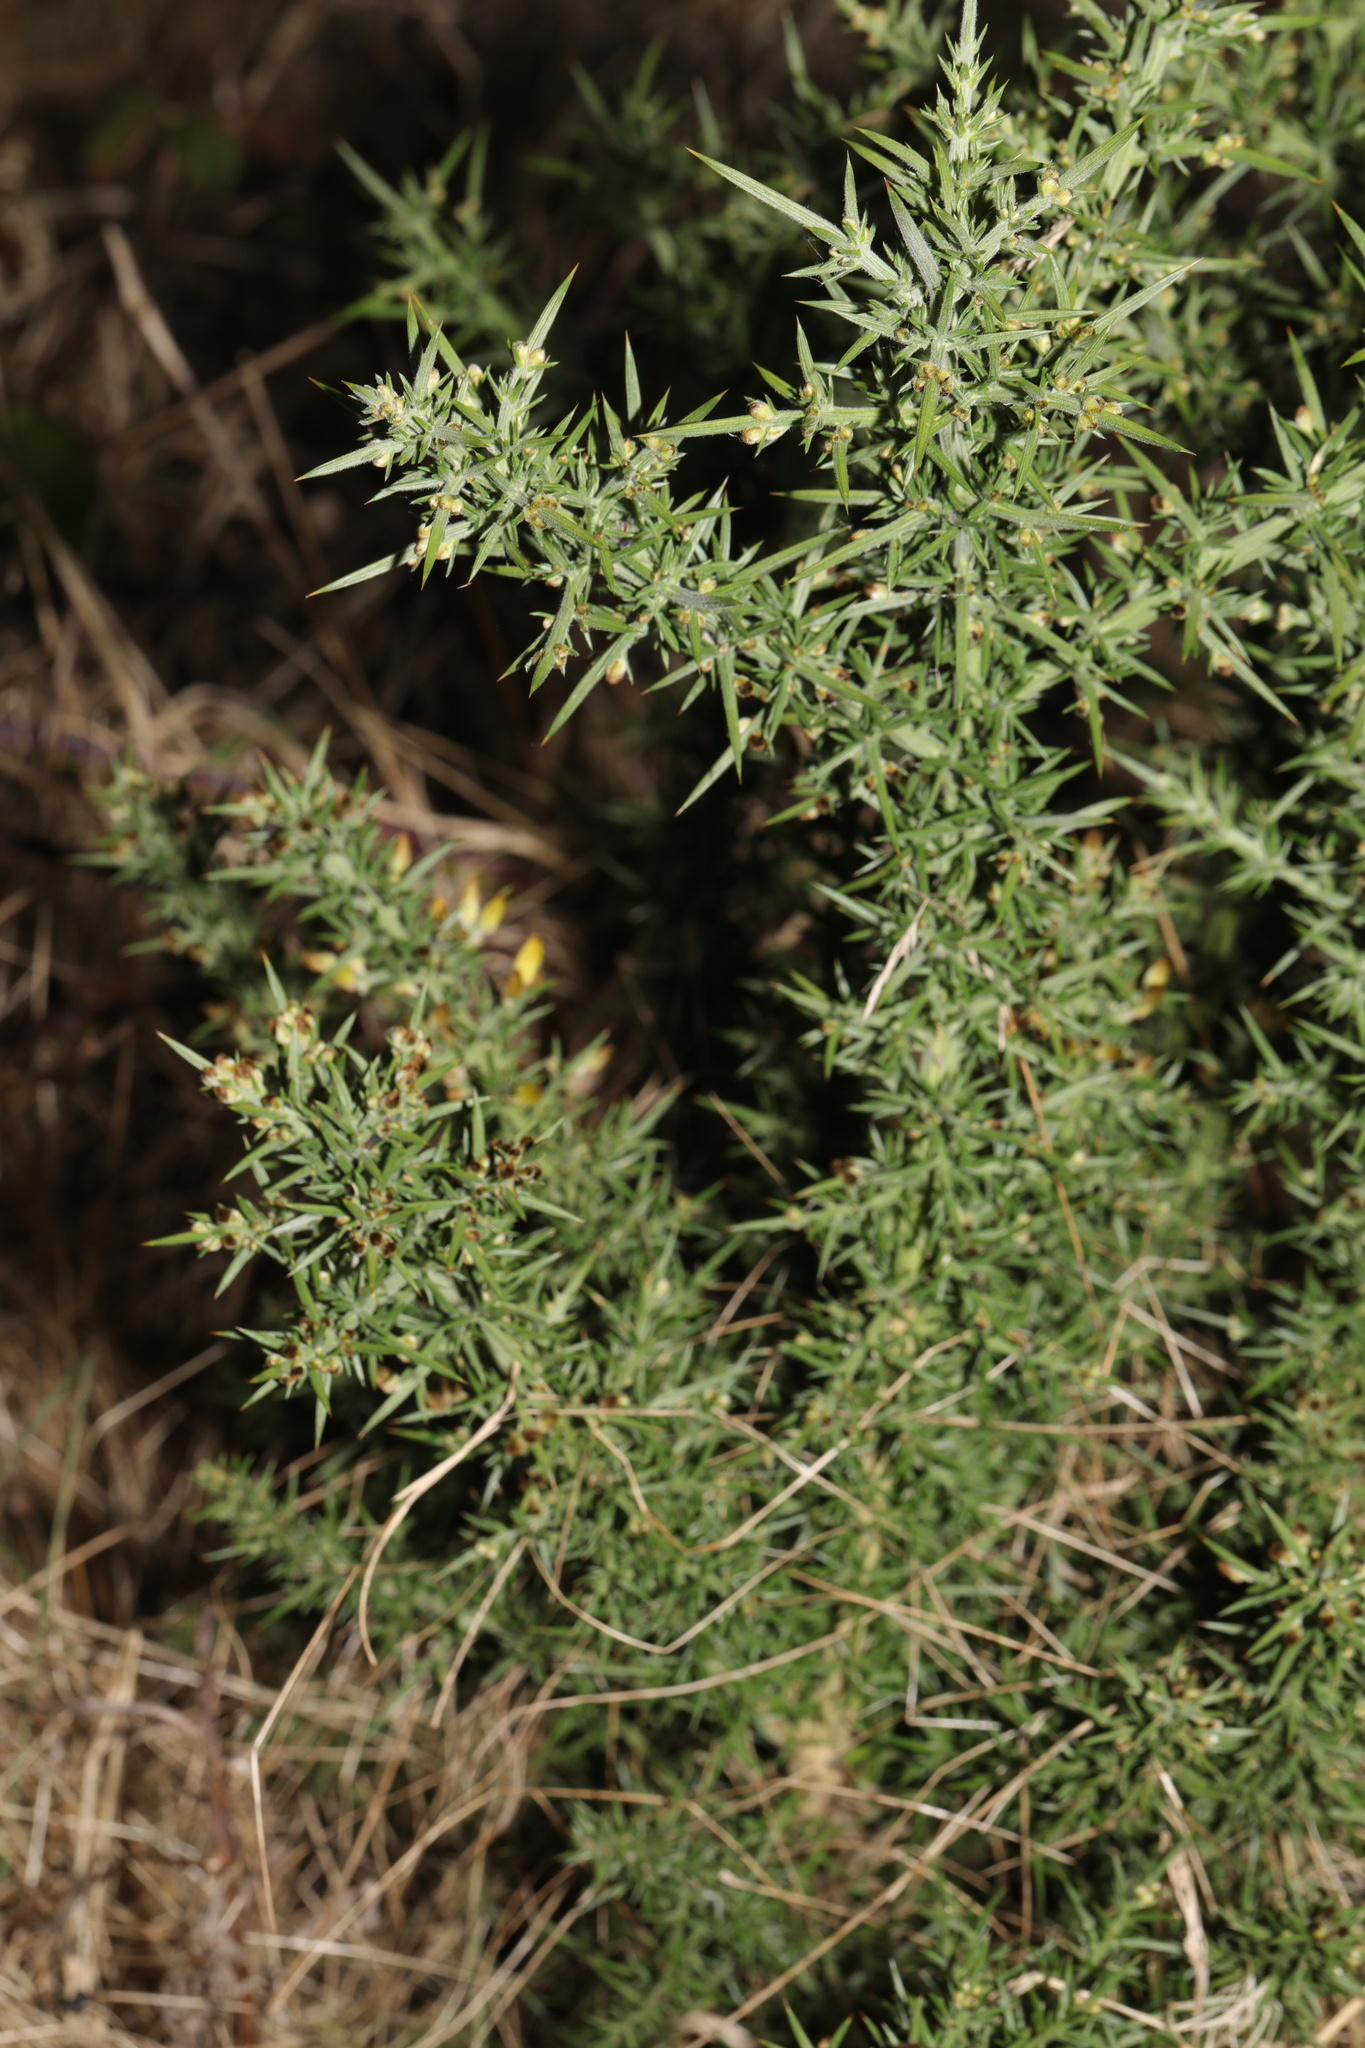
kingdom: Plantae
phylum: Tracheophyta
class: Magnoliopsida
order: Fabales
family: Fabaceae
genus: Ulex
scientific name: Ulex europaeus
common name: Common gorse
